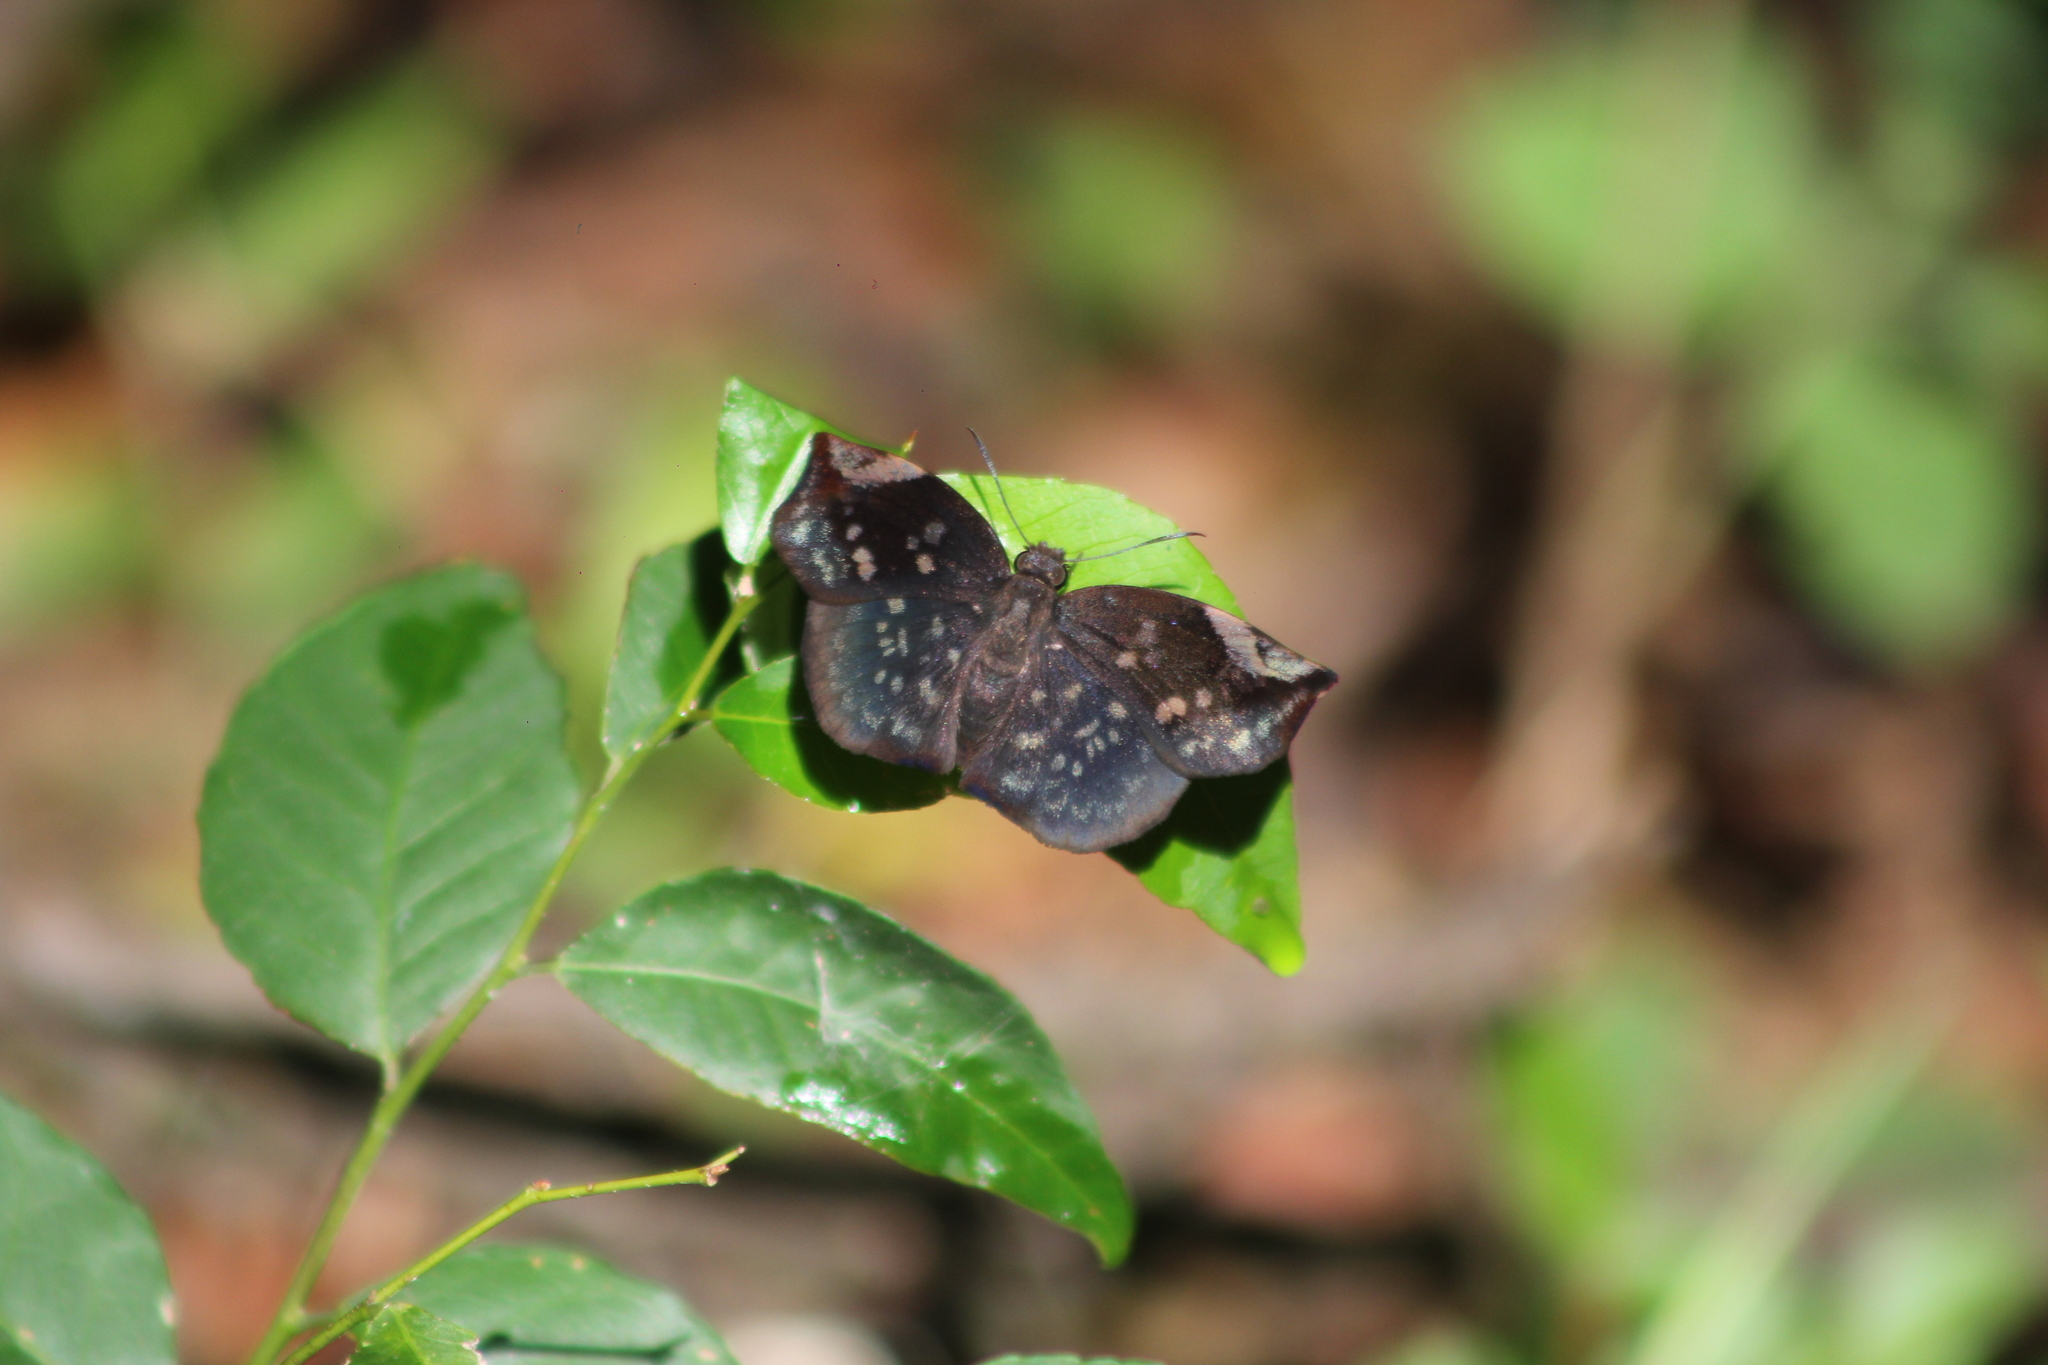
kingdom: Animalia
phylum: Arthropoda
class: Insecta
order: Lepidoptera
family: Hesperiidae
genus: Achlyodes
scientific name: Achlyodes thraso
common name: Sickle-winged skipper
